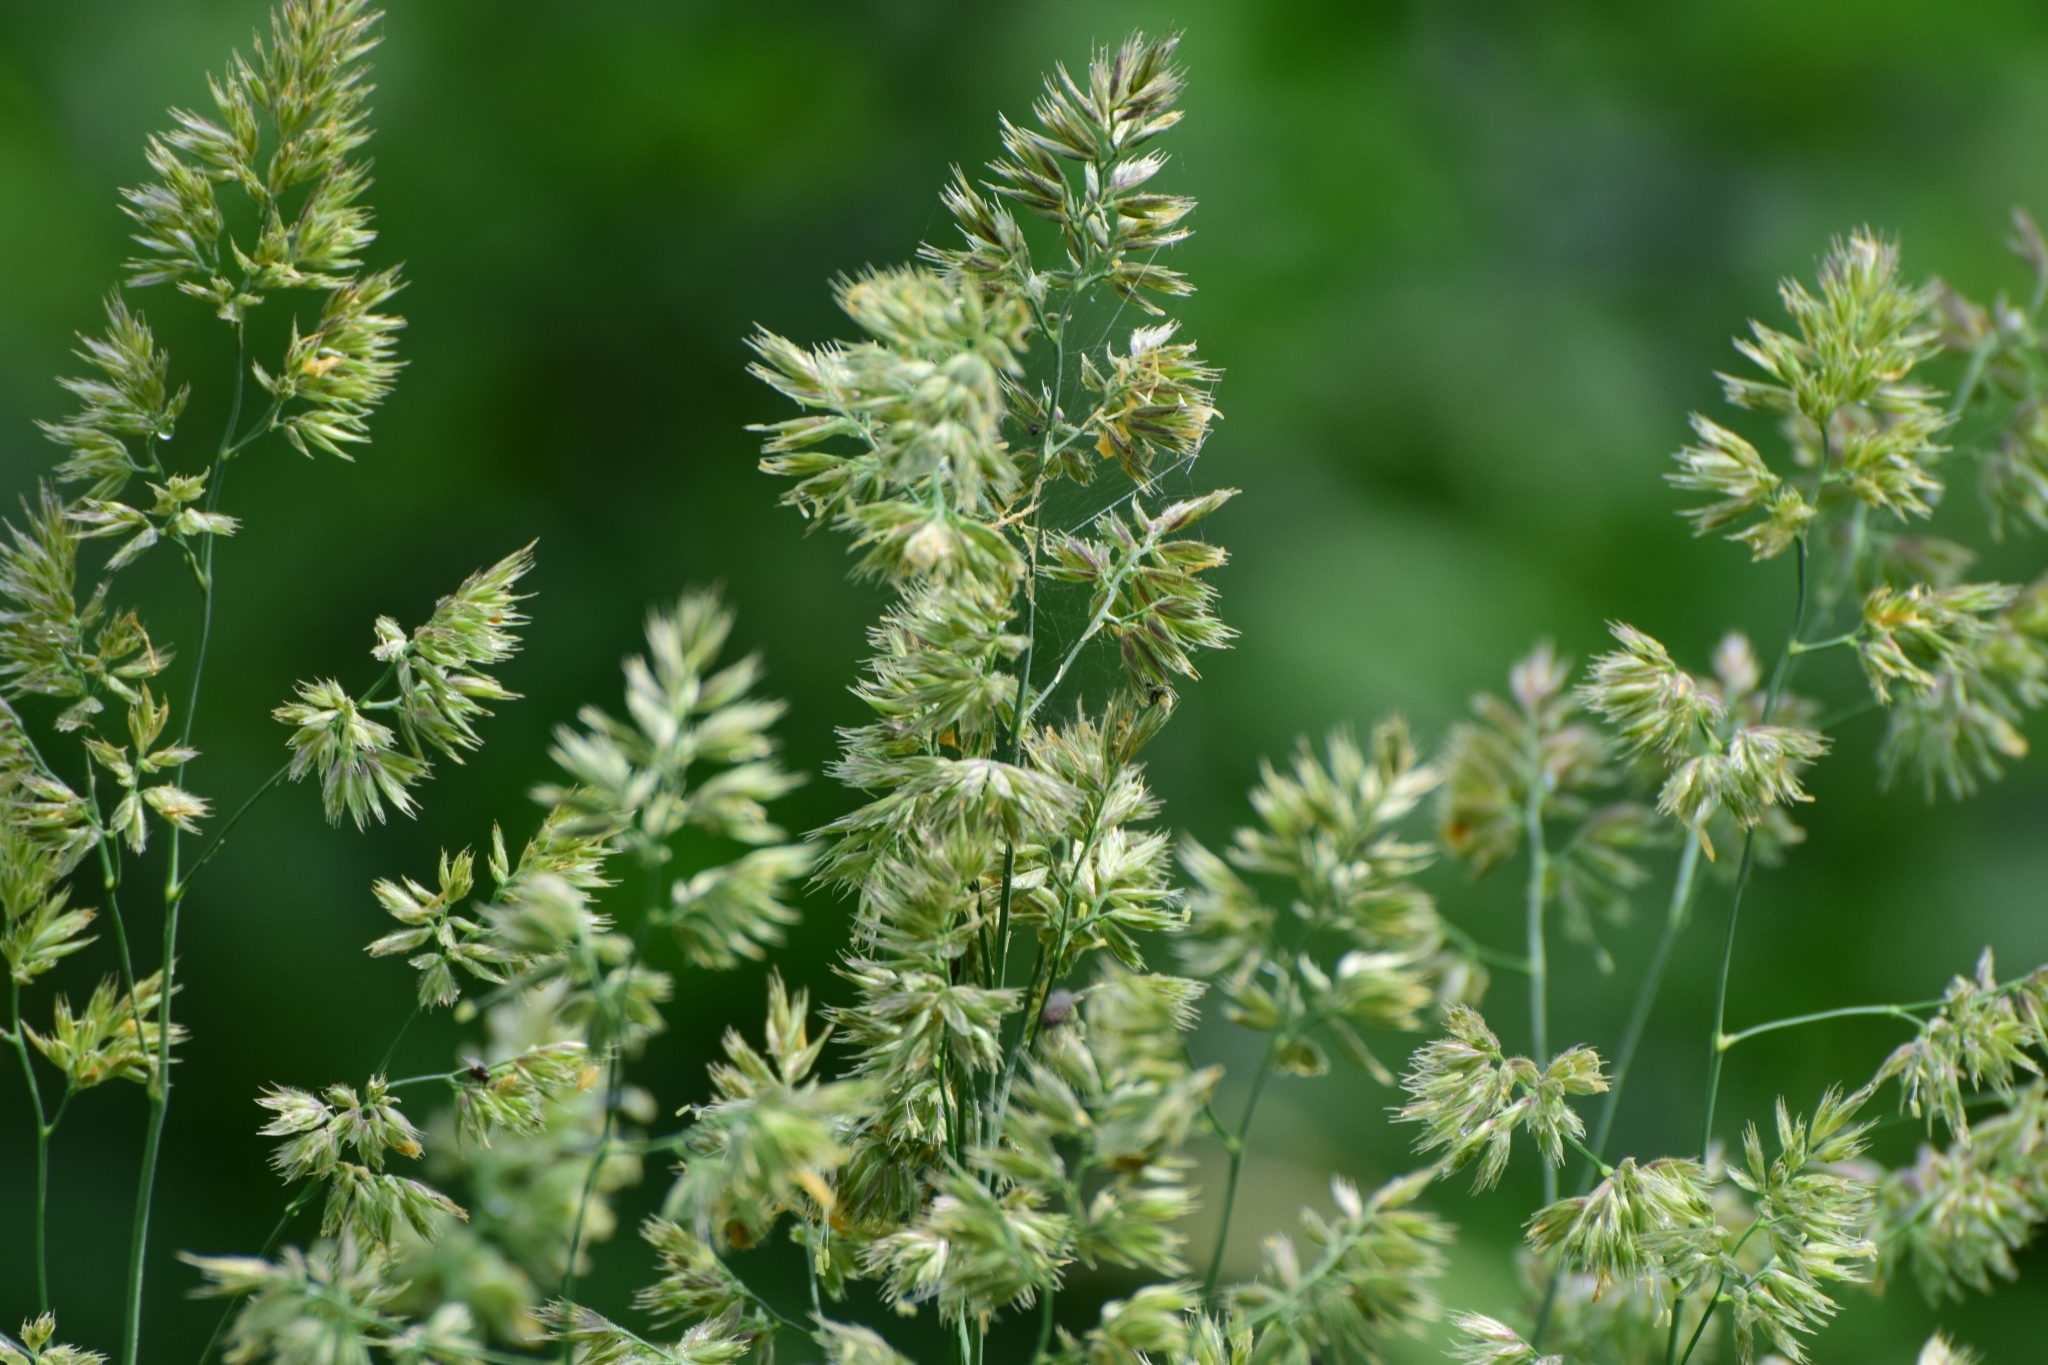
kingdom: Plantae
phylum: Tracheophyta
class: Liliopsida
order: Poales
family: Poaceae
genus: Dactylis
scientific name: Dactylis glomerata
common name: Orchardgrass
